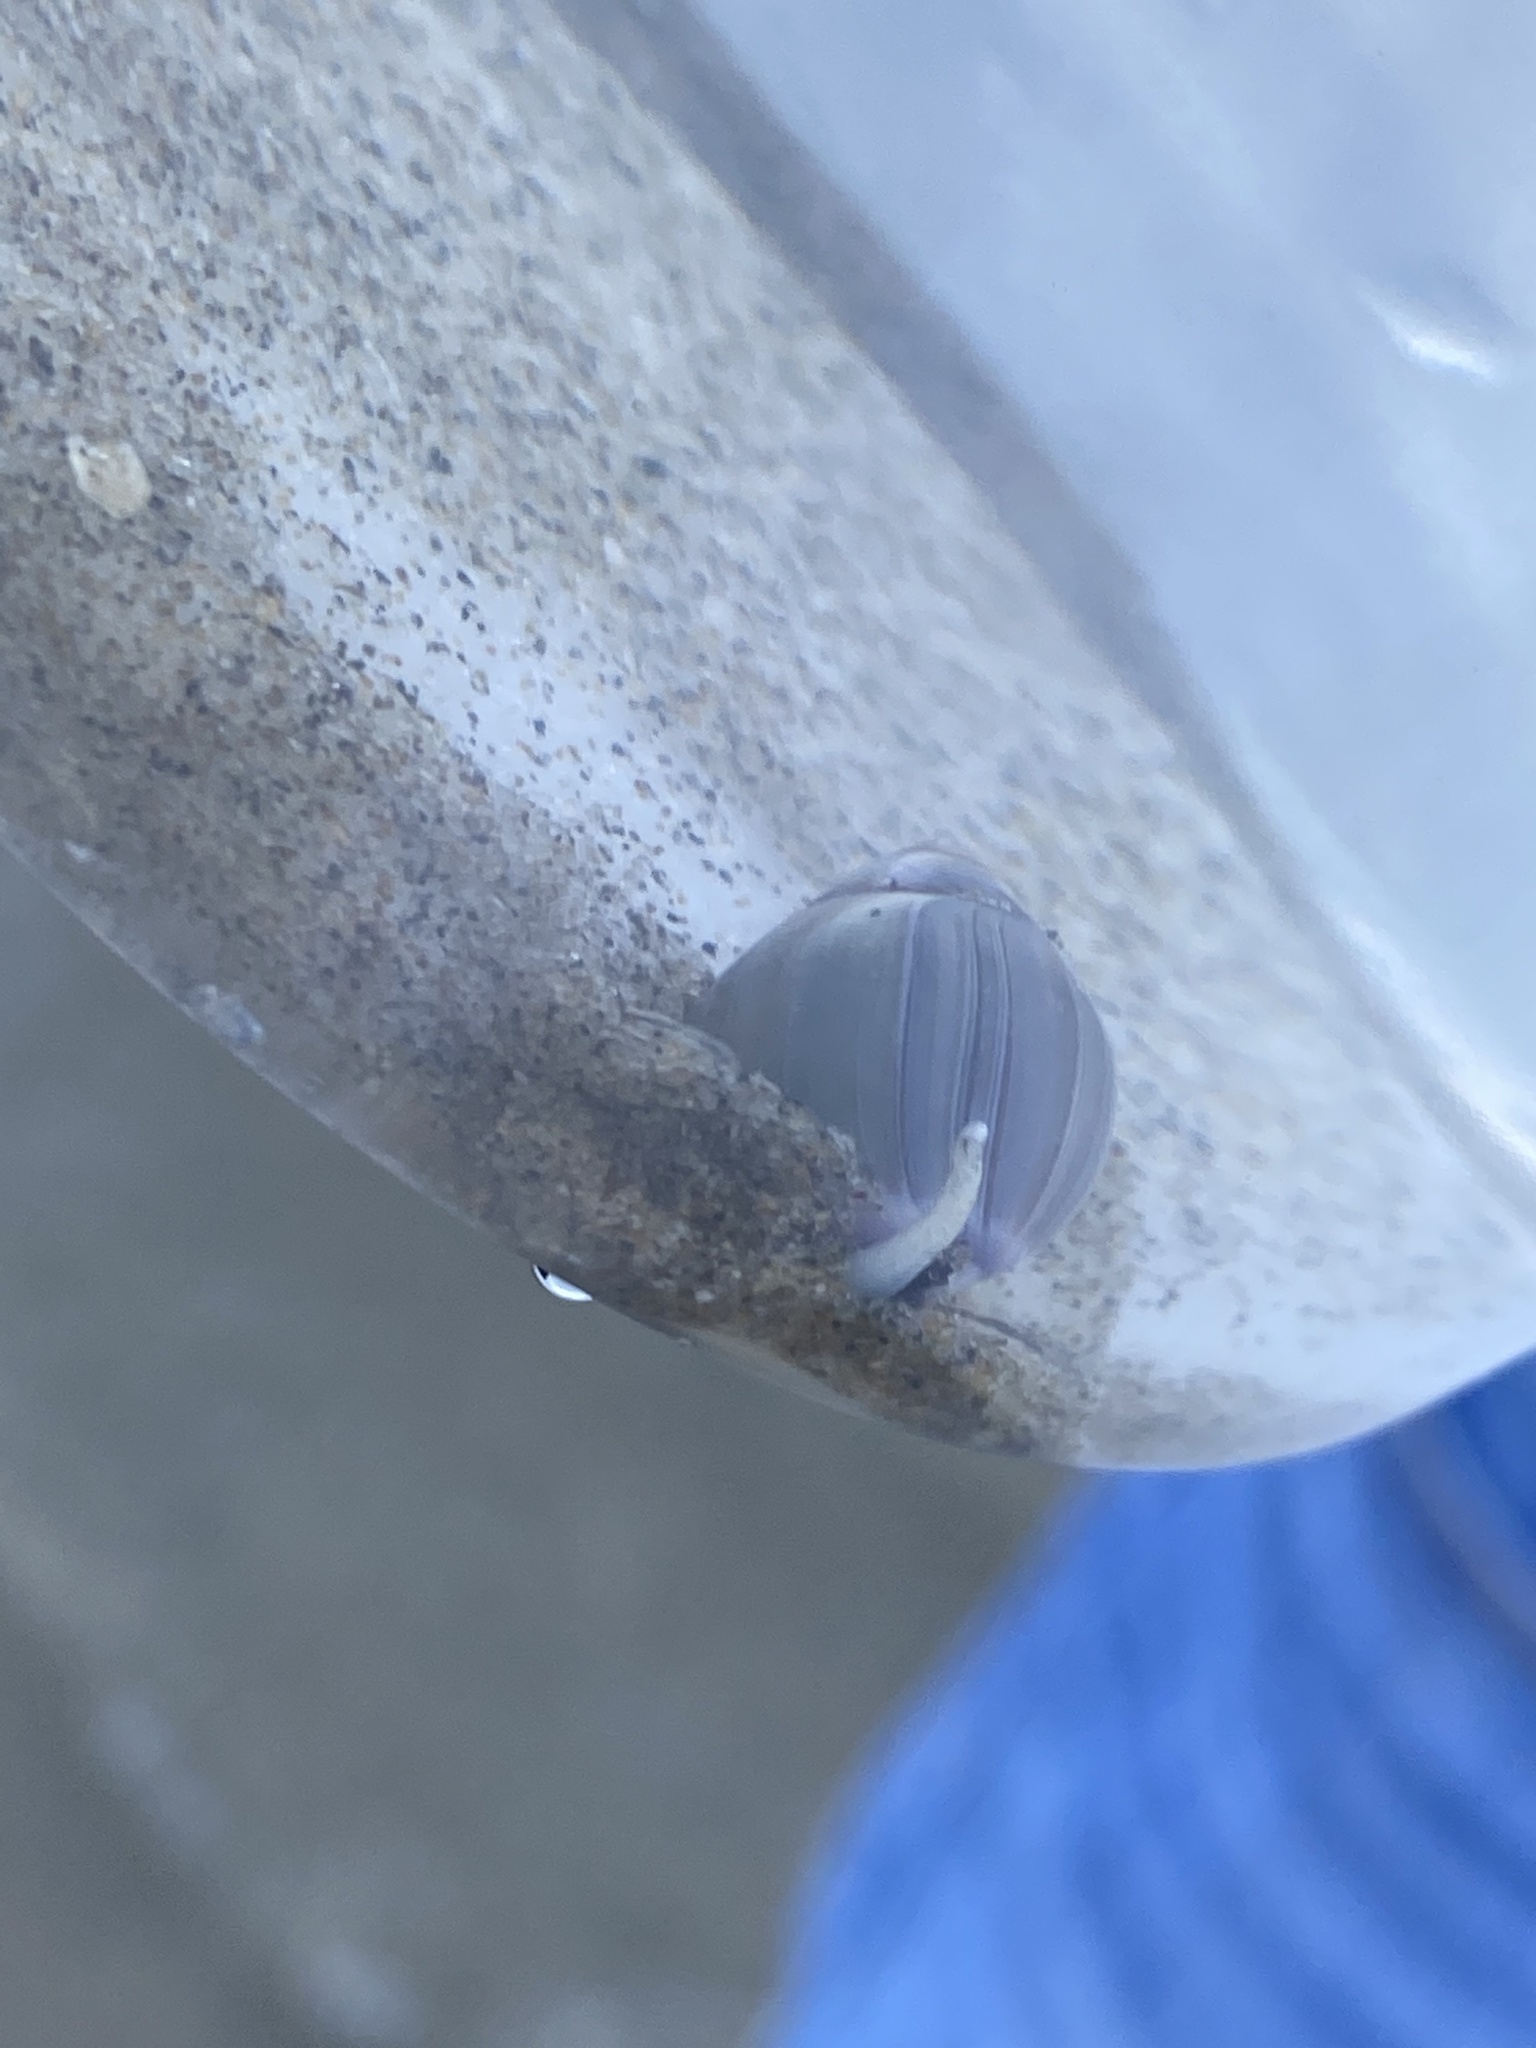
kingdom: Animalia
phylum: Mollusca
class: Gastropoda
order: Neogastropoda
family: Olividae
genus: Callianax
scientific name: Callianax biplicata
